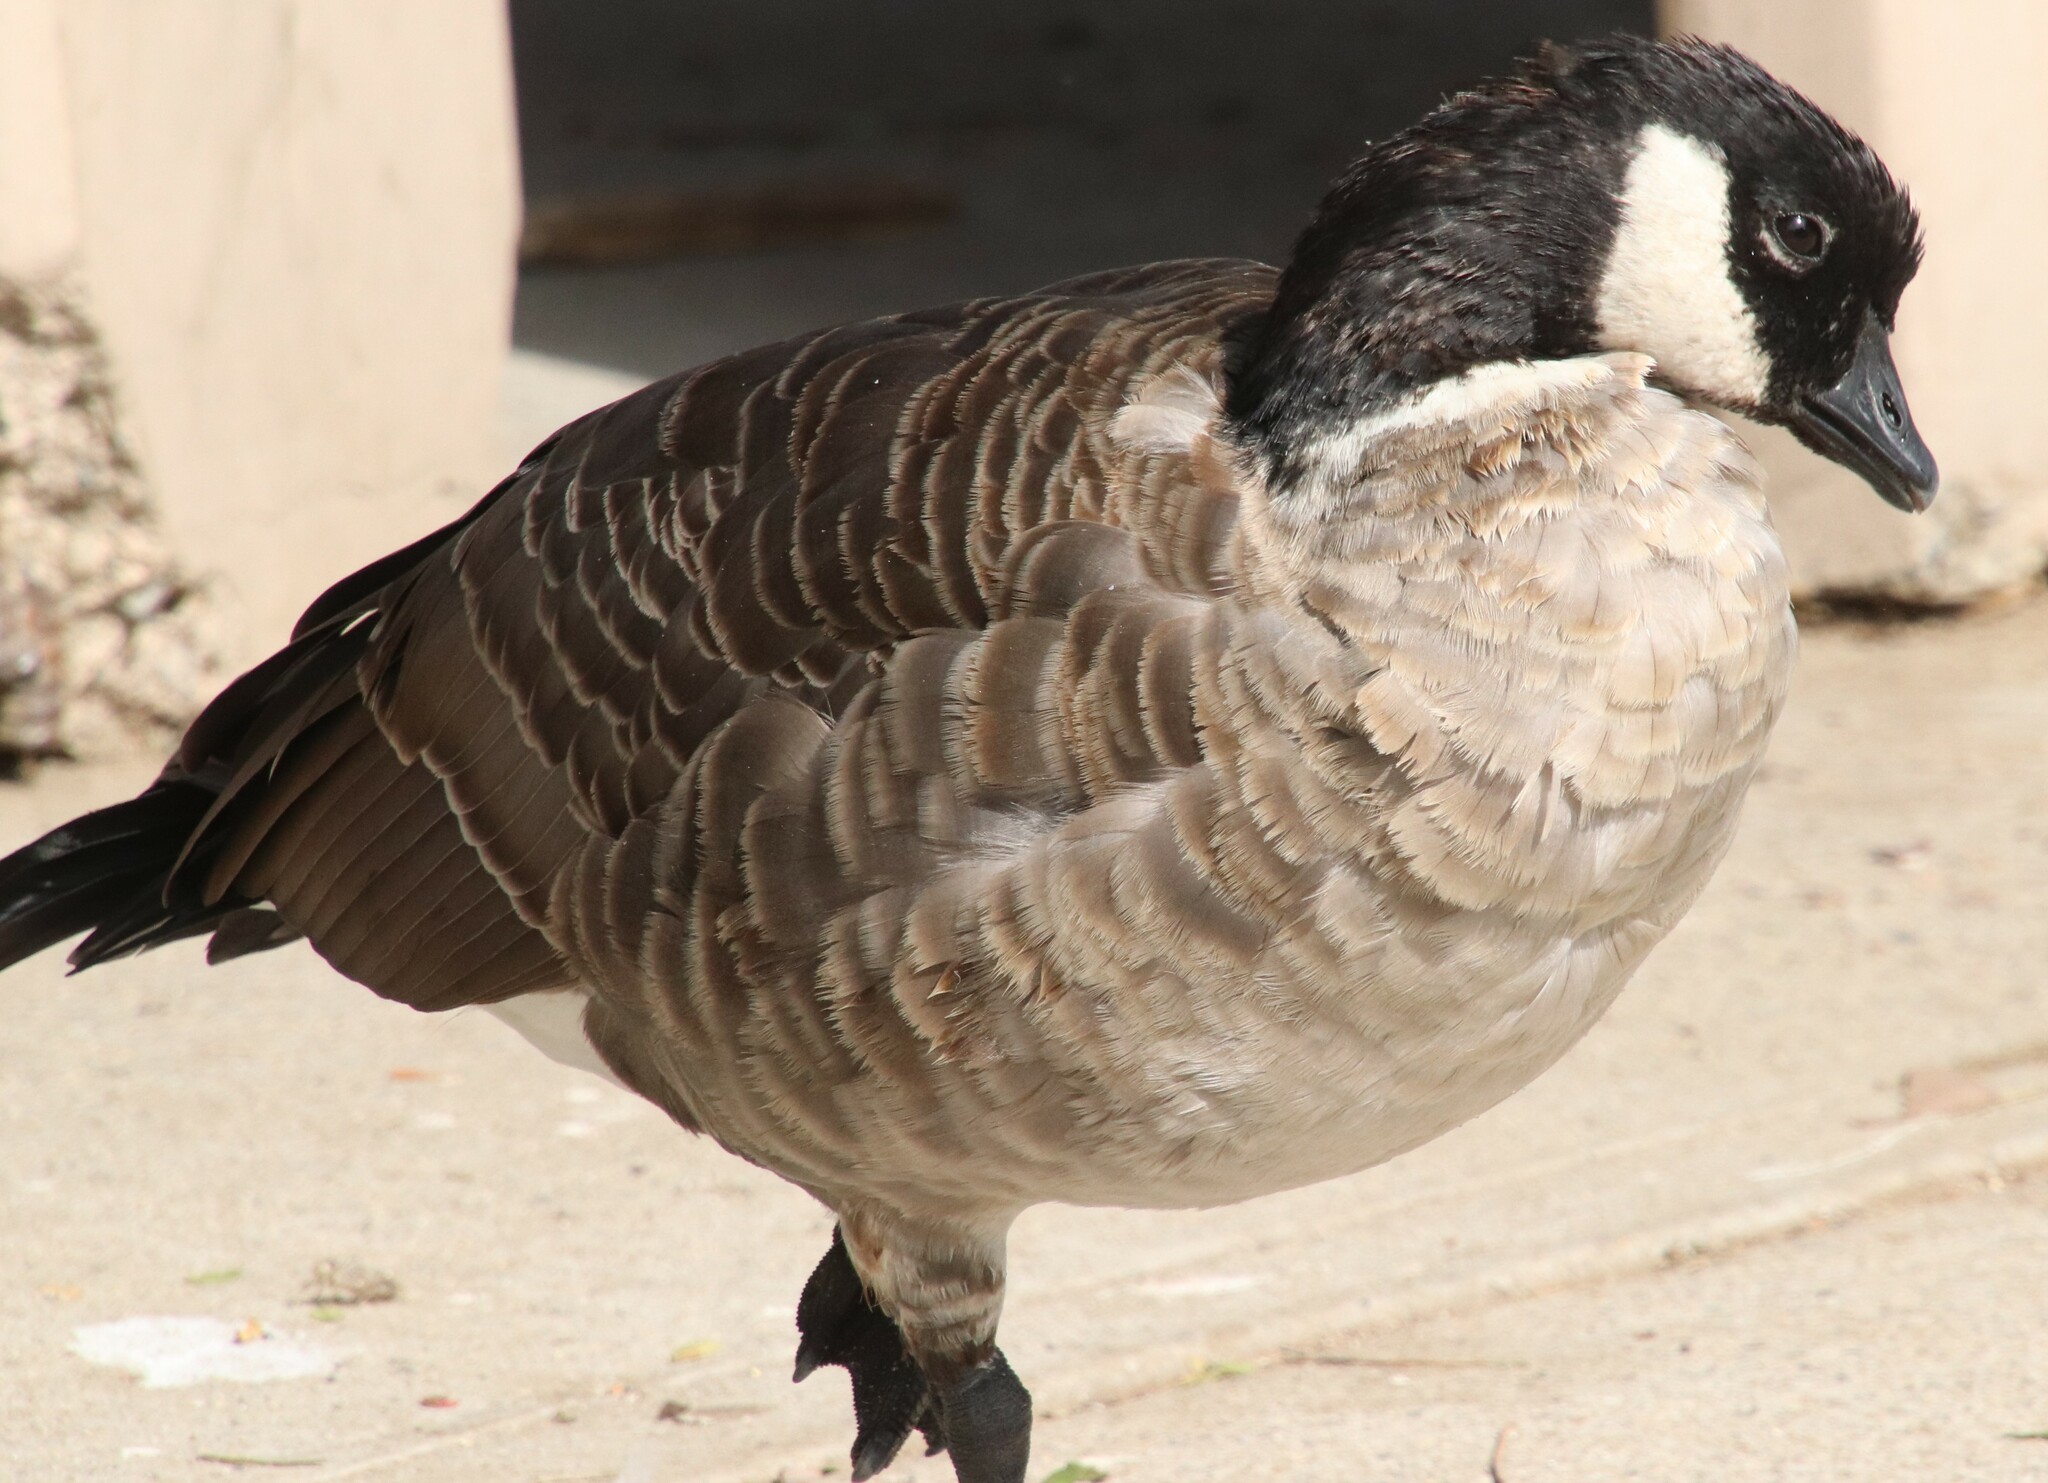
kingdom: Animalia
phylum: Chordata
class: Aves
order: Anseriformes
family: Anatidae
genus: Branta
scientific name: Branta hutchinsii
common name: Cackling goose
